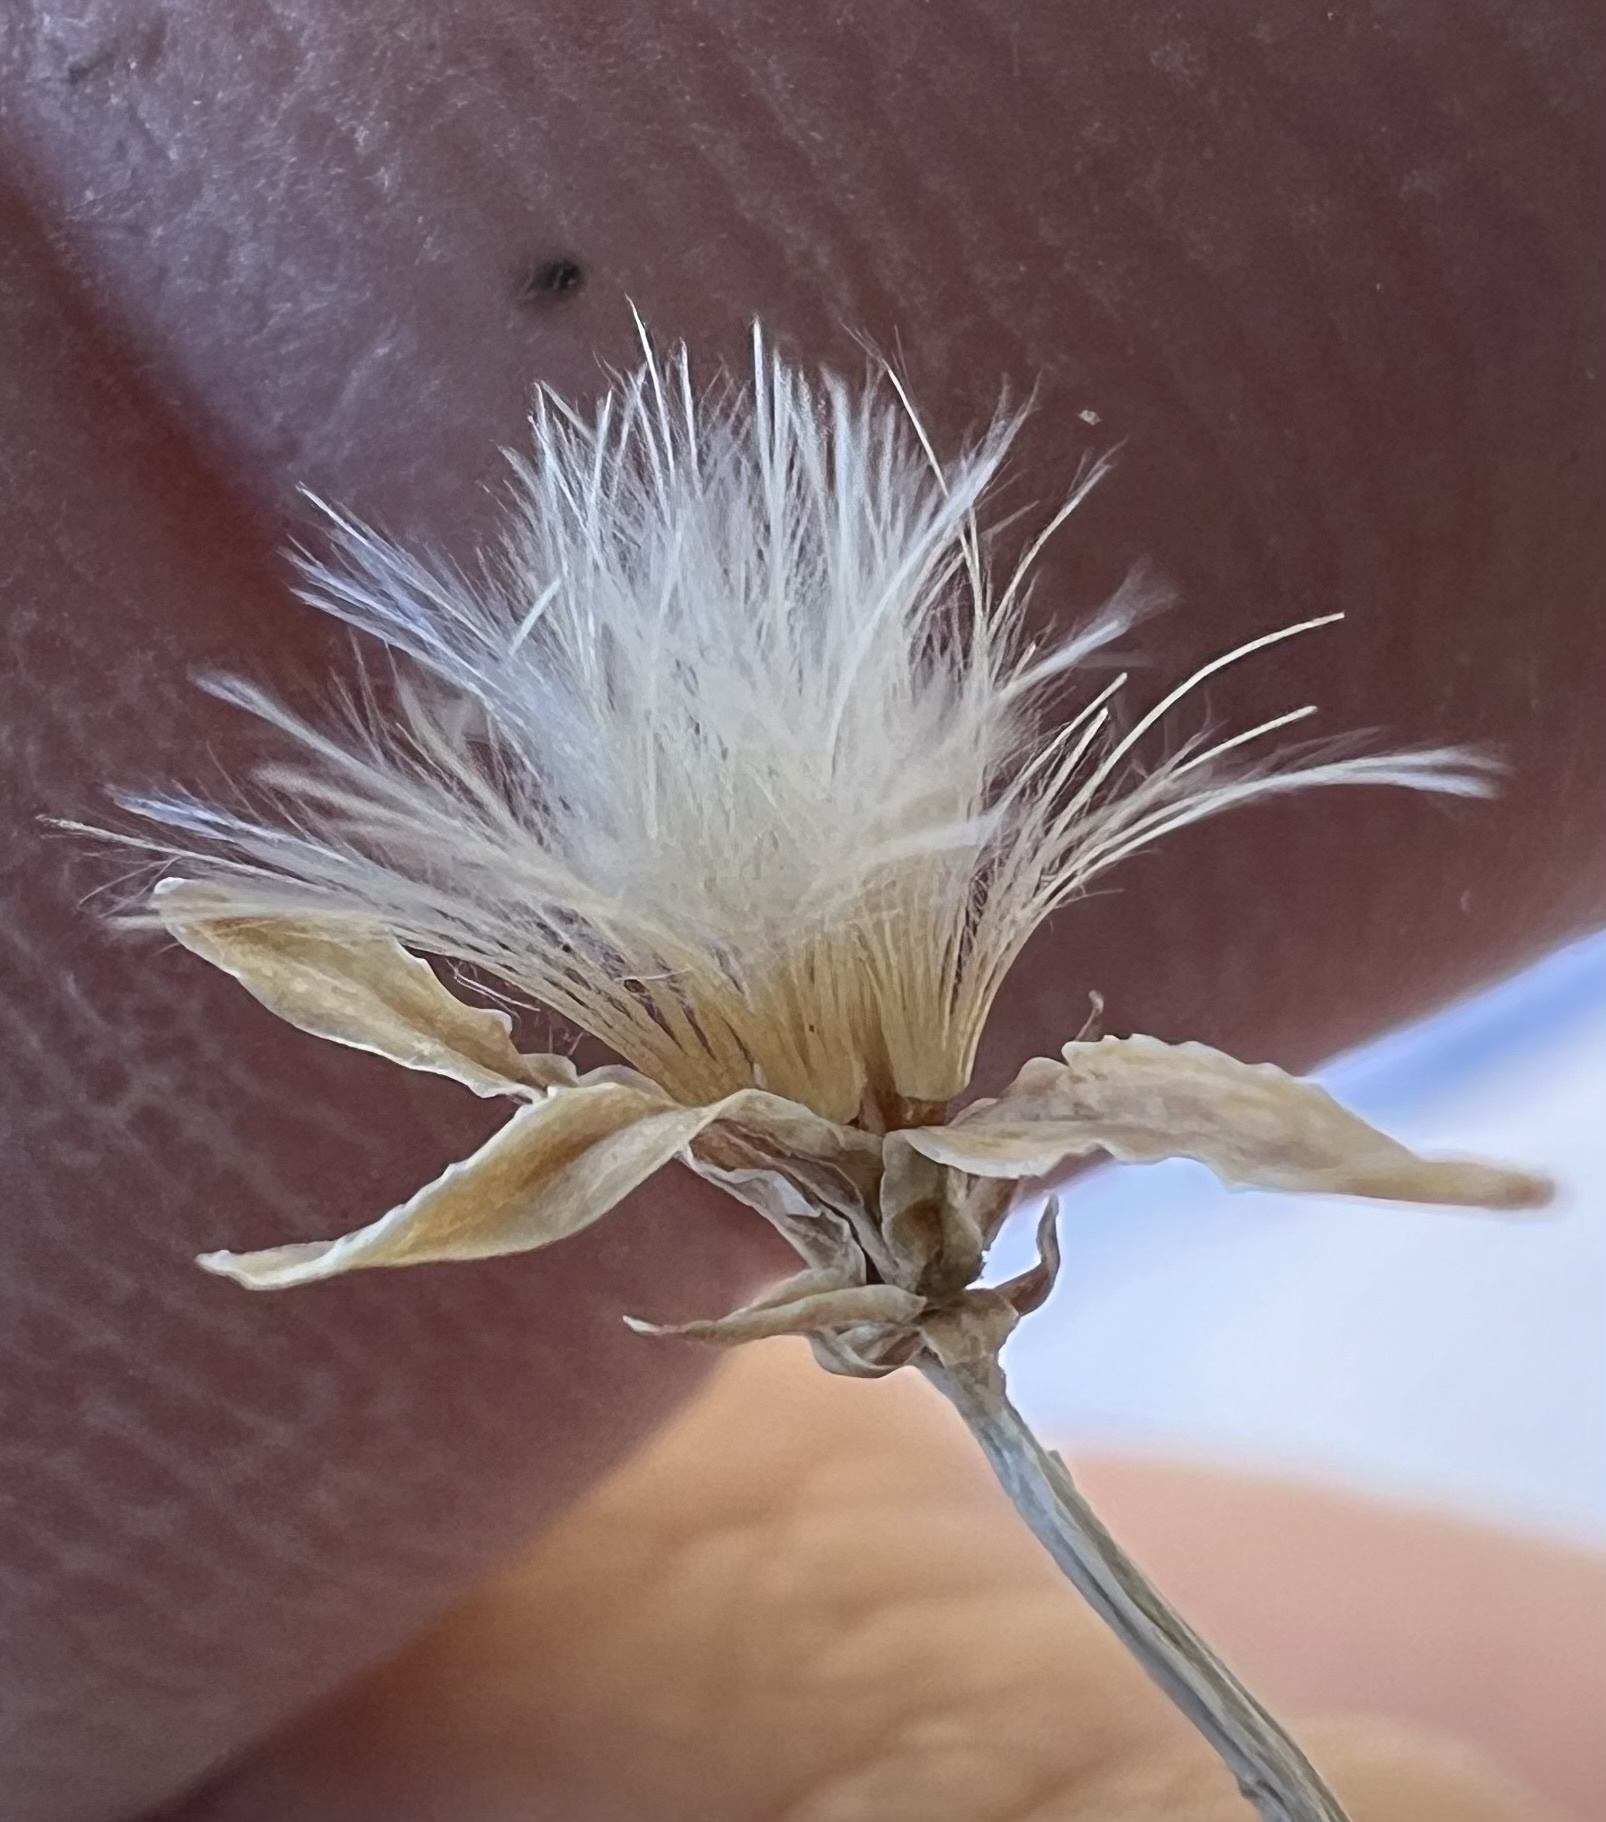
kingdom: Plantae
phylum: Tracheophyta
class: Magnoliopsida
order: Asterales
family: Asteraceae
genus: Stephanomeria
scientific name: Stephanomeria pauciflora
